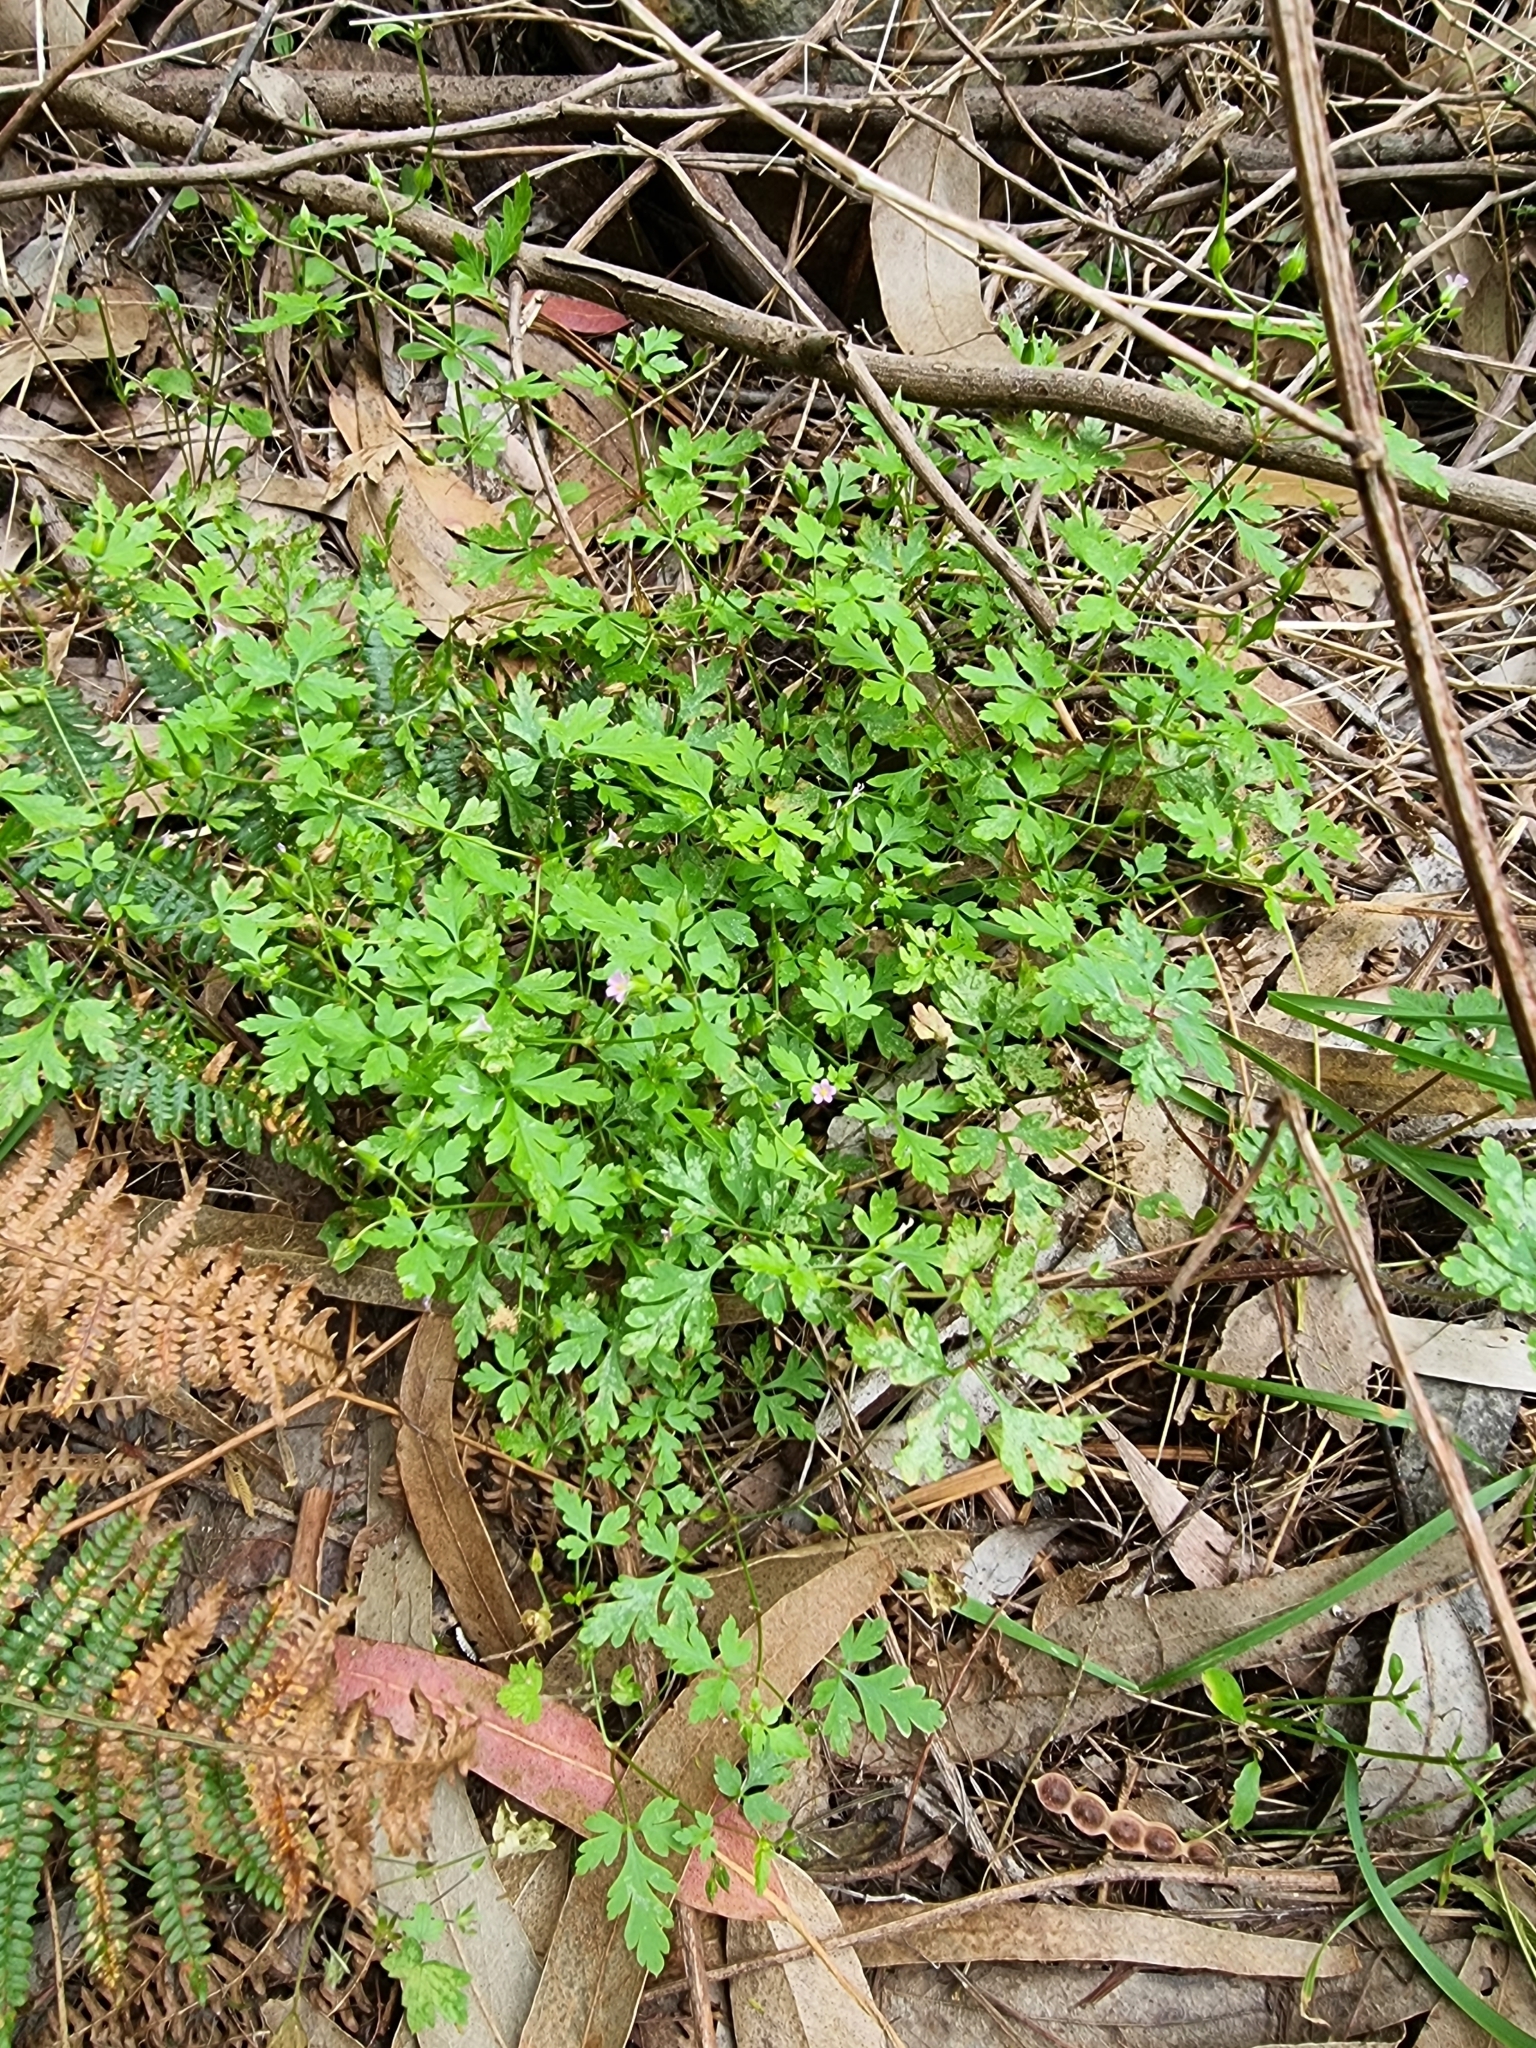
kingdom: Plantae
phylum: Tracheophyta
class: Magnoliopsida
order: Geraniales
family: Geraniaceae
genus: Geranium
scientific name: Geranium purpureum
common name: Little-robin
